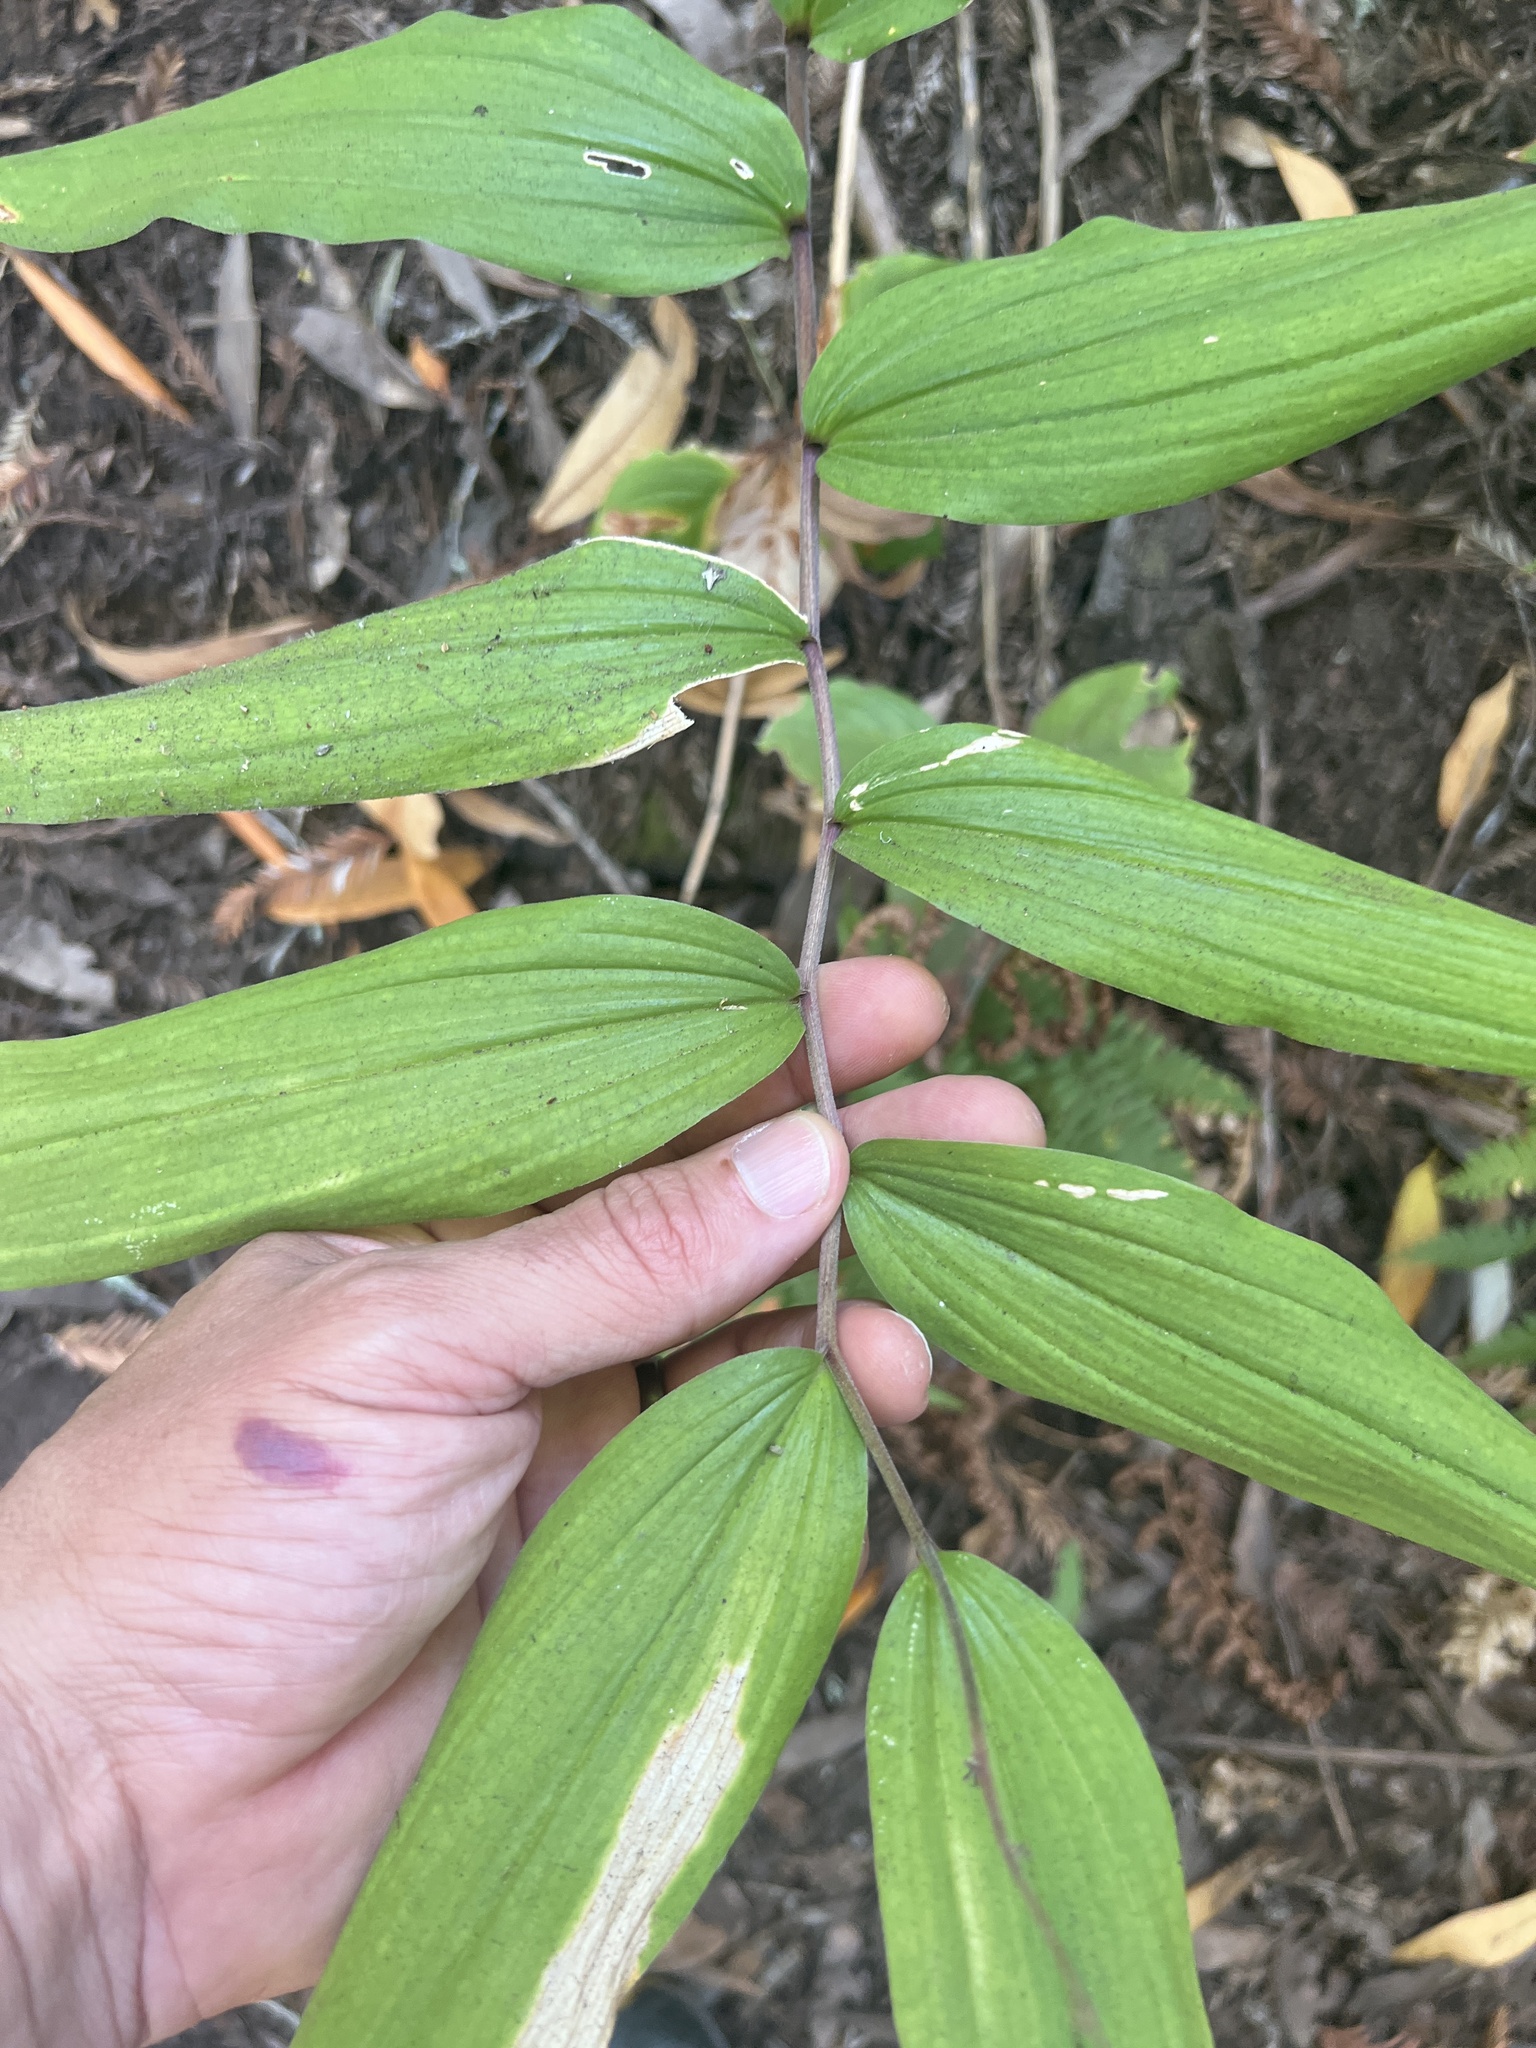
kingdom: Plantae
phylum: Tracheophyta
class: Liliopsida
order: Asparagales
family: Asparagaceae
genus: Maianthemum
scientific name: Maianthemum racemosum
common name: False spikenard
